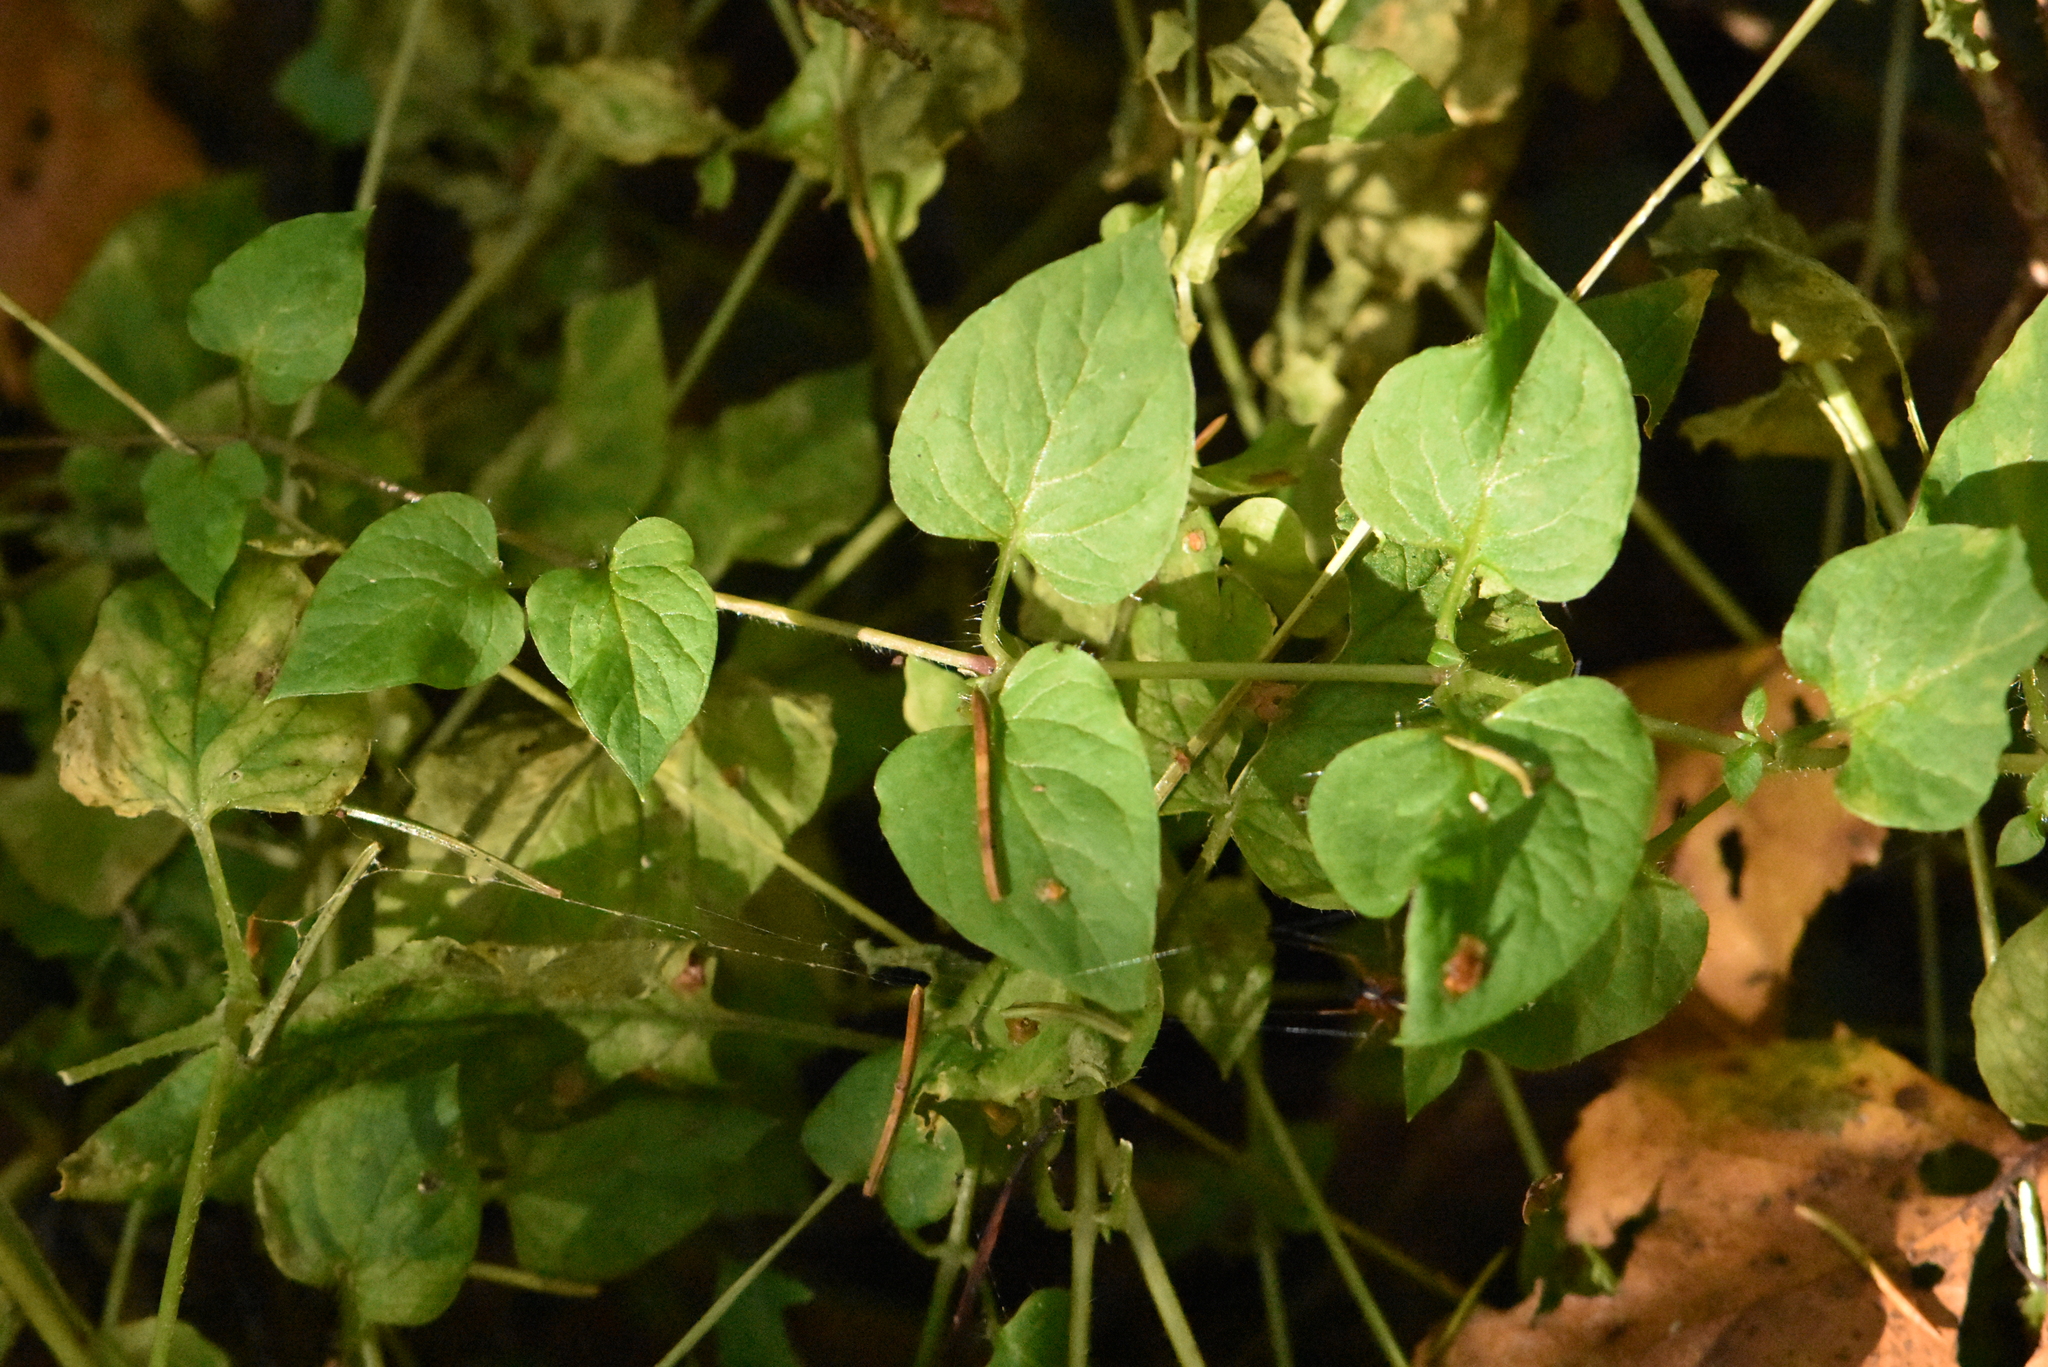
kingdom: Plantae
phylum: Tracheophyta
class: Magnoliopsida
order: Caryophyllales
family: Caryophyllaceae
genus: Stellaria
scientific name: Stellaria nemorum
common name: Wood stitchwort
